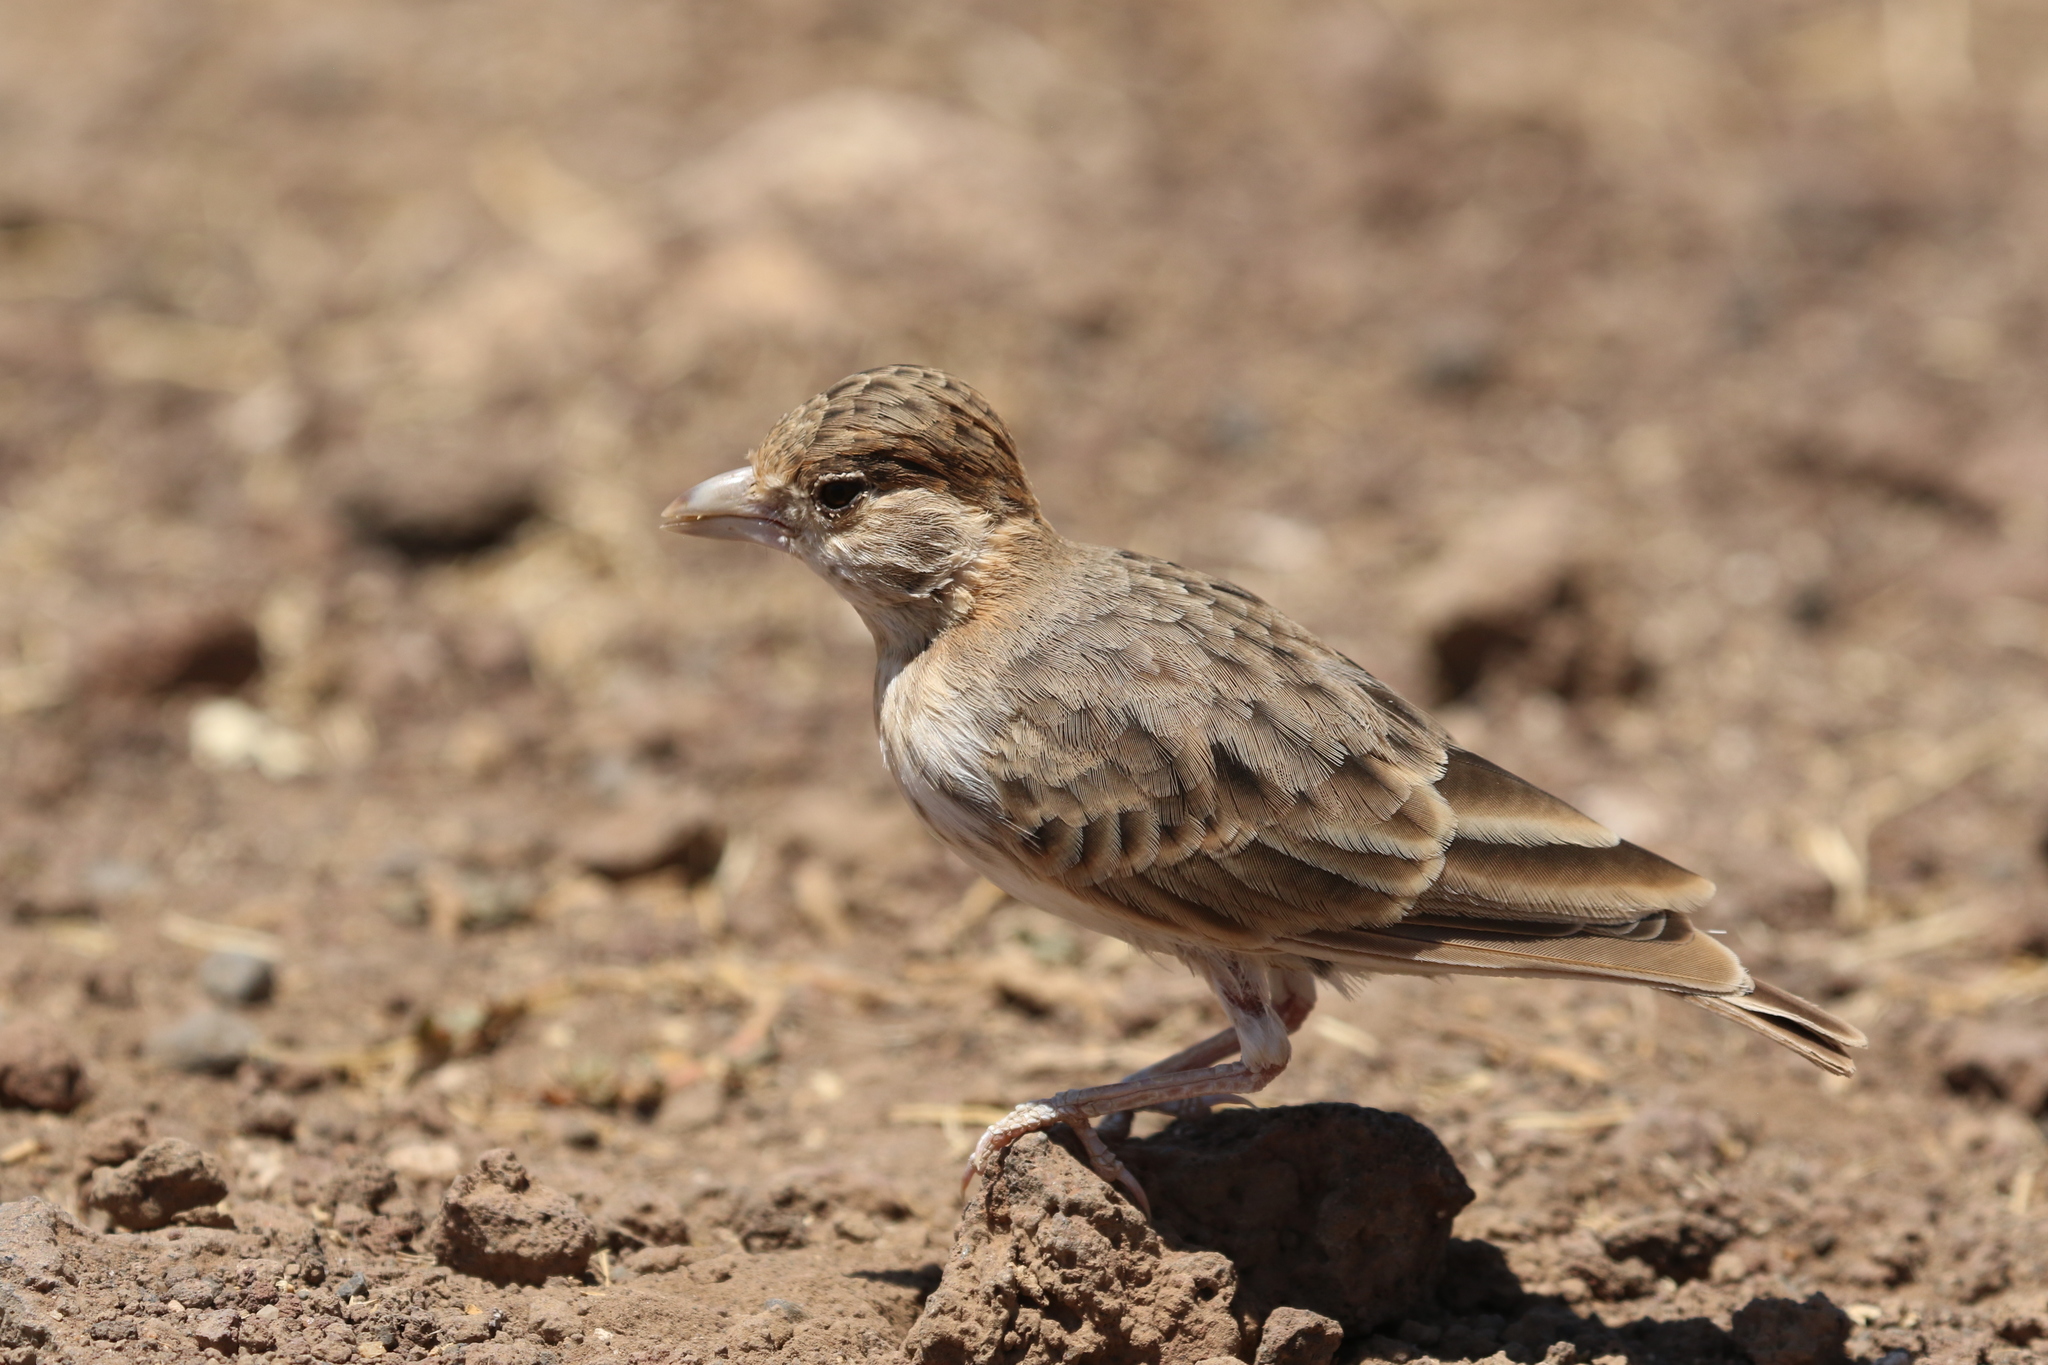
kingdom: Animalia
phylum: Chordata
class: Aves
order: Passeriformes
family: Alaudidae
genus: Eremopterix
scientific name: Eremopterix leucopareia
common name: Fischer's sparrow-lark
